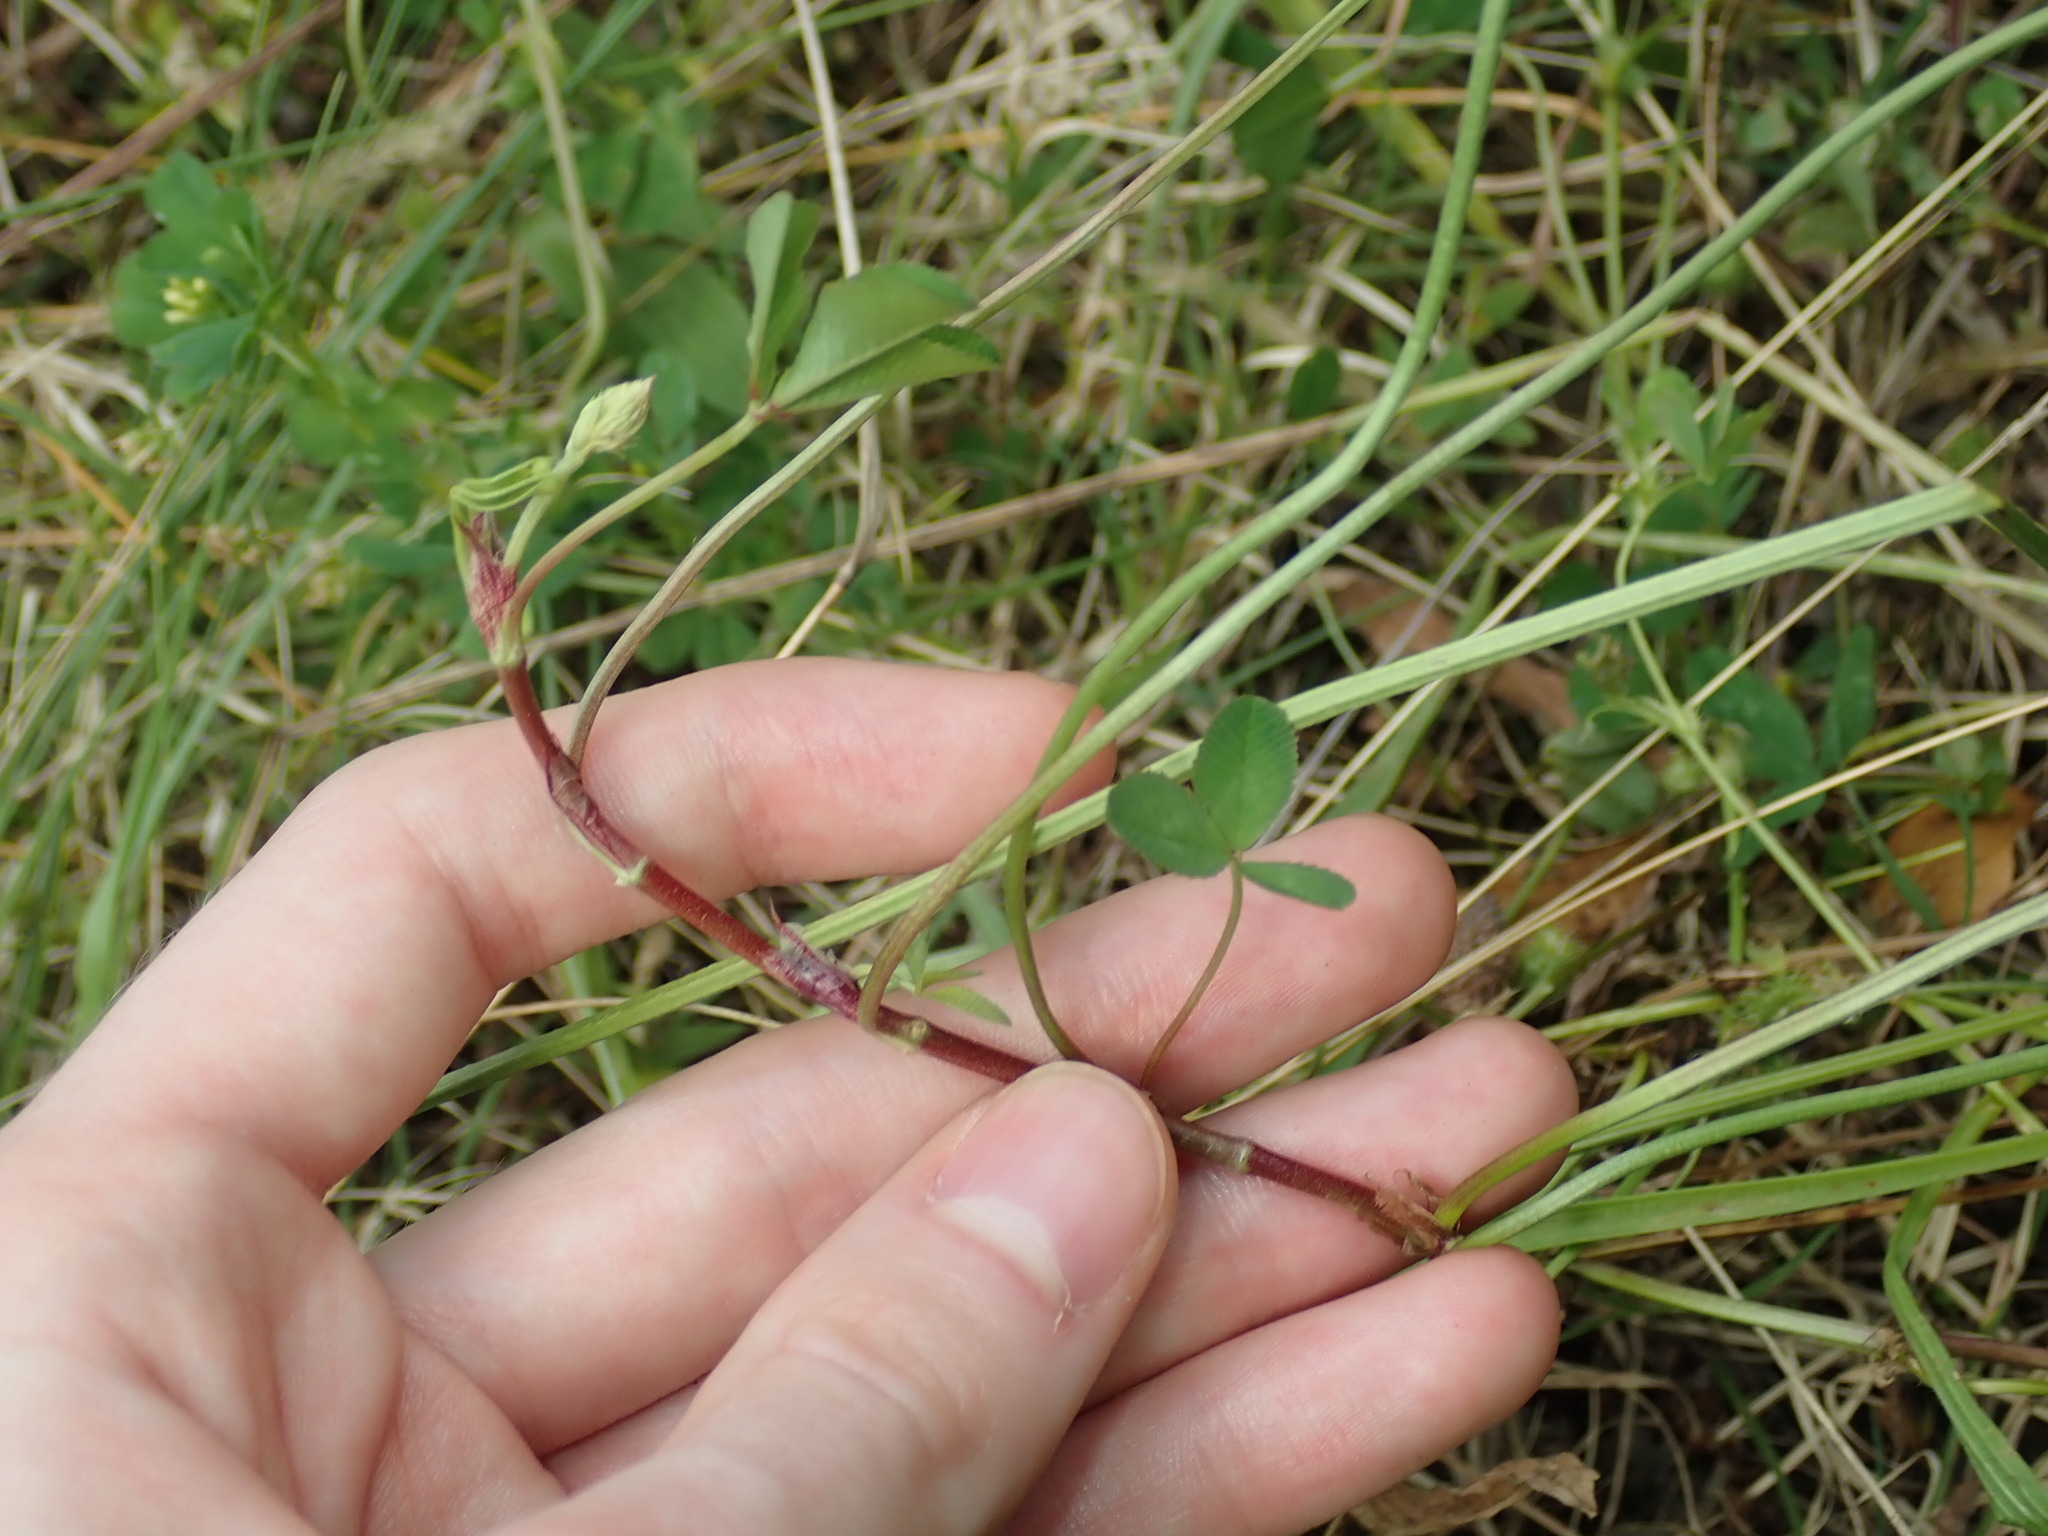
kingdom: Plantae
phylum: Tracheophyta
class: Magnoliopsida
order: Fabales
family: Fabaceae
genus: Trifolium
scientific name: Trifolium repens
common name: White clover
